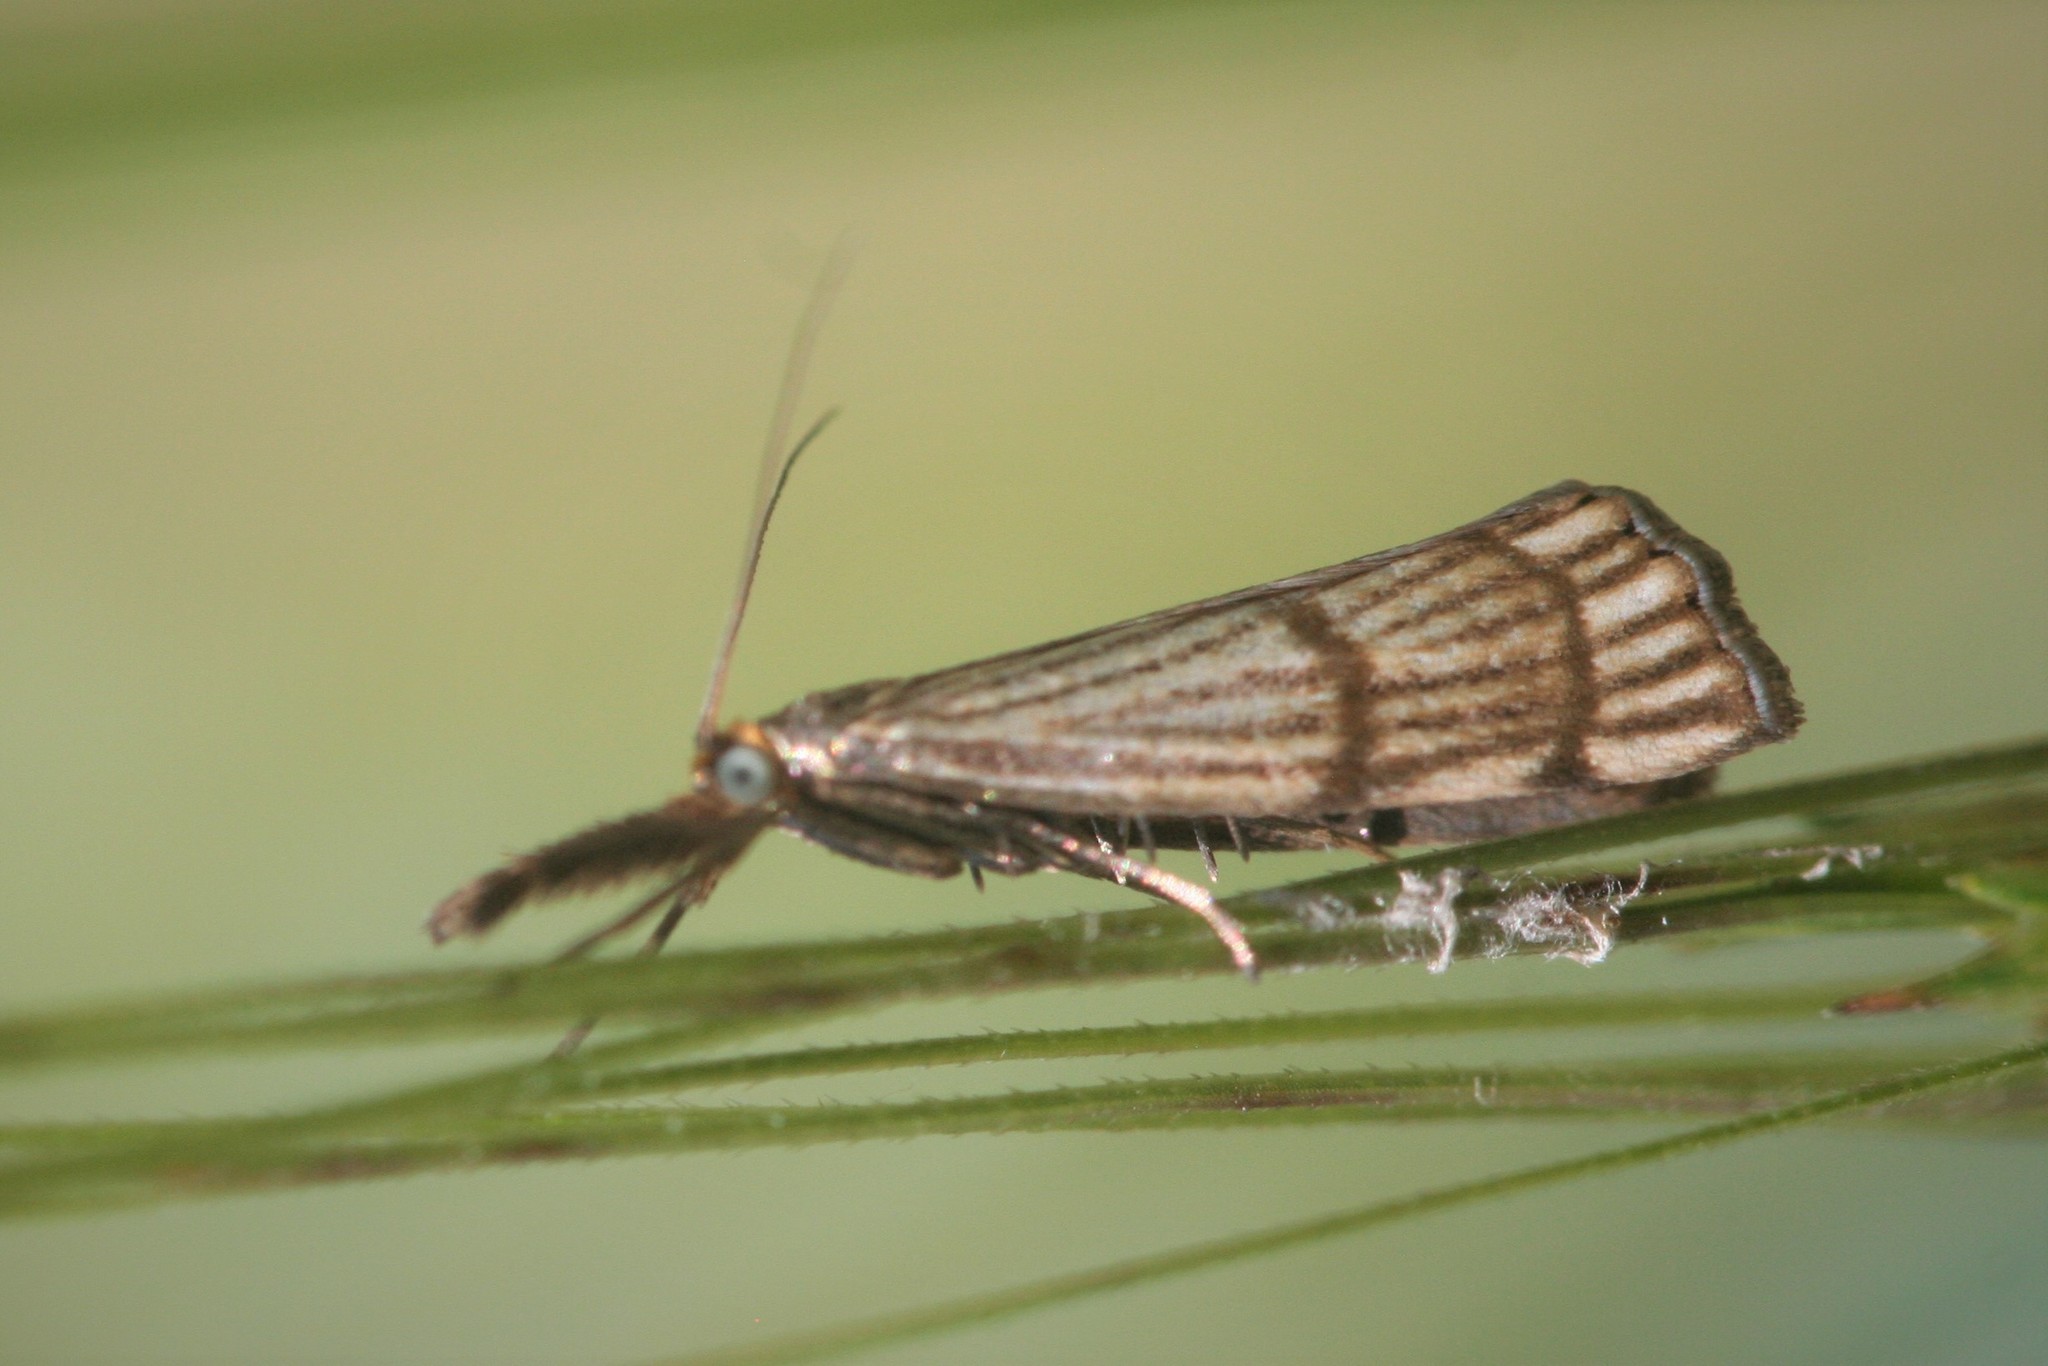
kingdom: Animalia
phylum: Arthropoda
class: Insecta
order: Lepidoptera
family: Crambidae
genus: Chrysocrambus
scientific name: Chrysocrambus linetella
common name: Orange-bar grass-veneer
